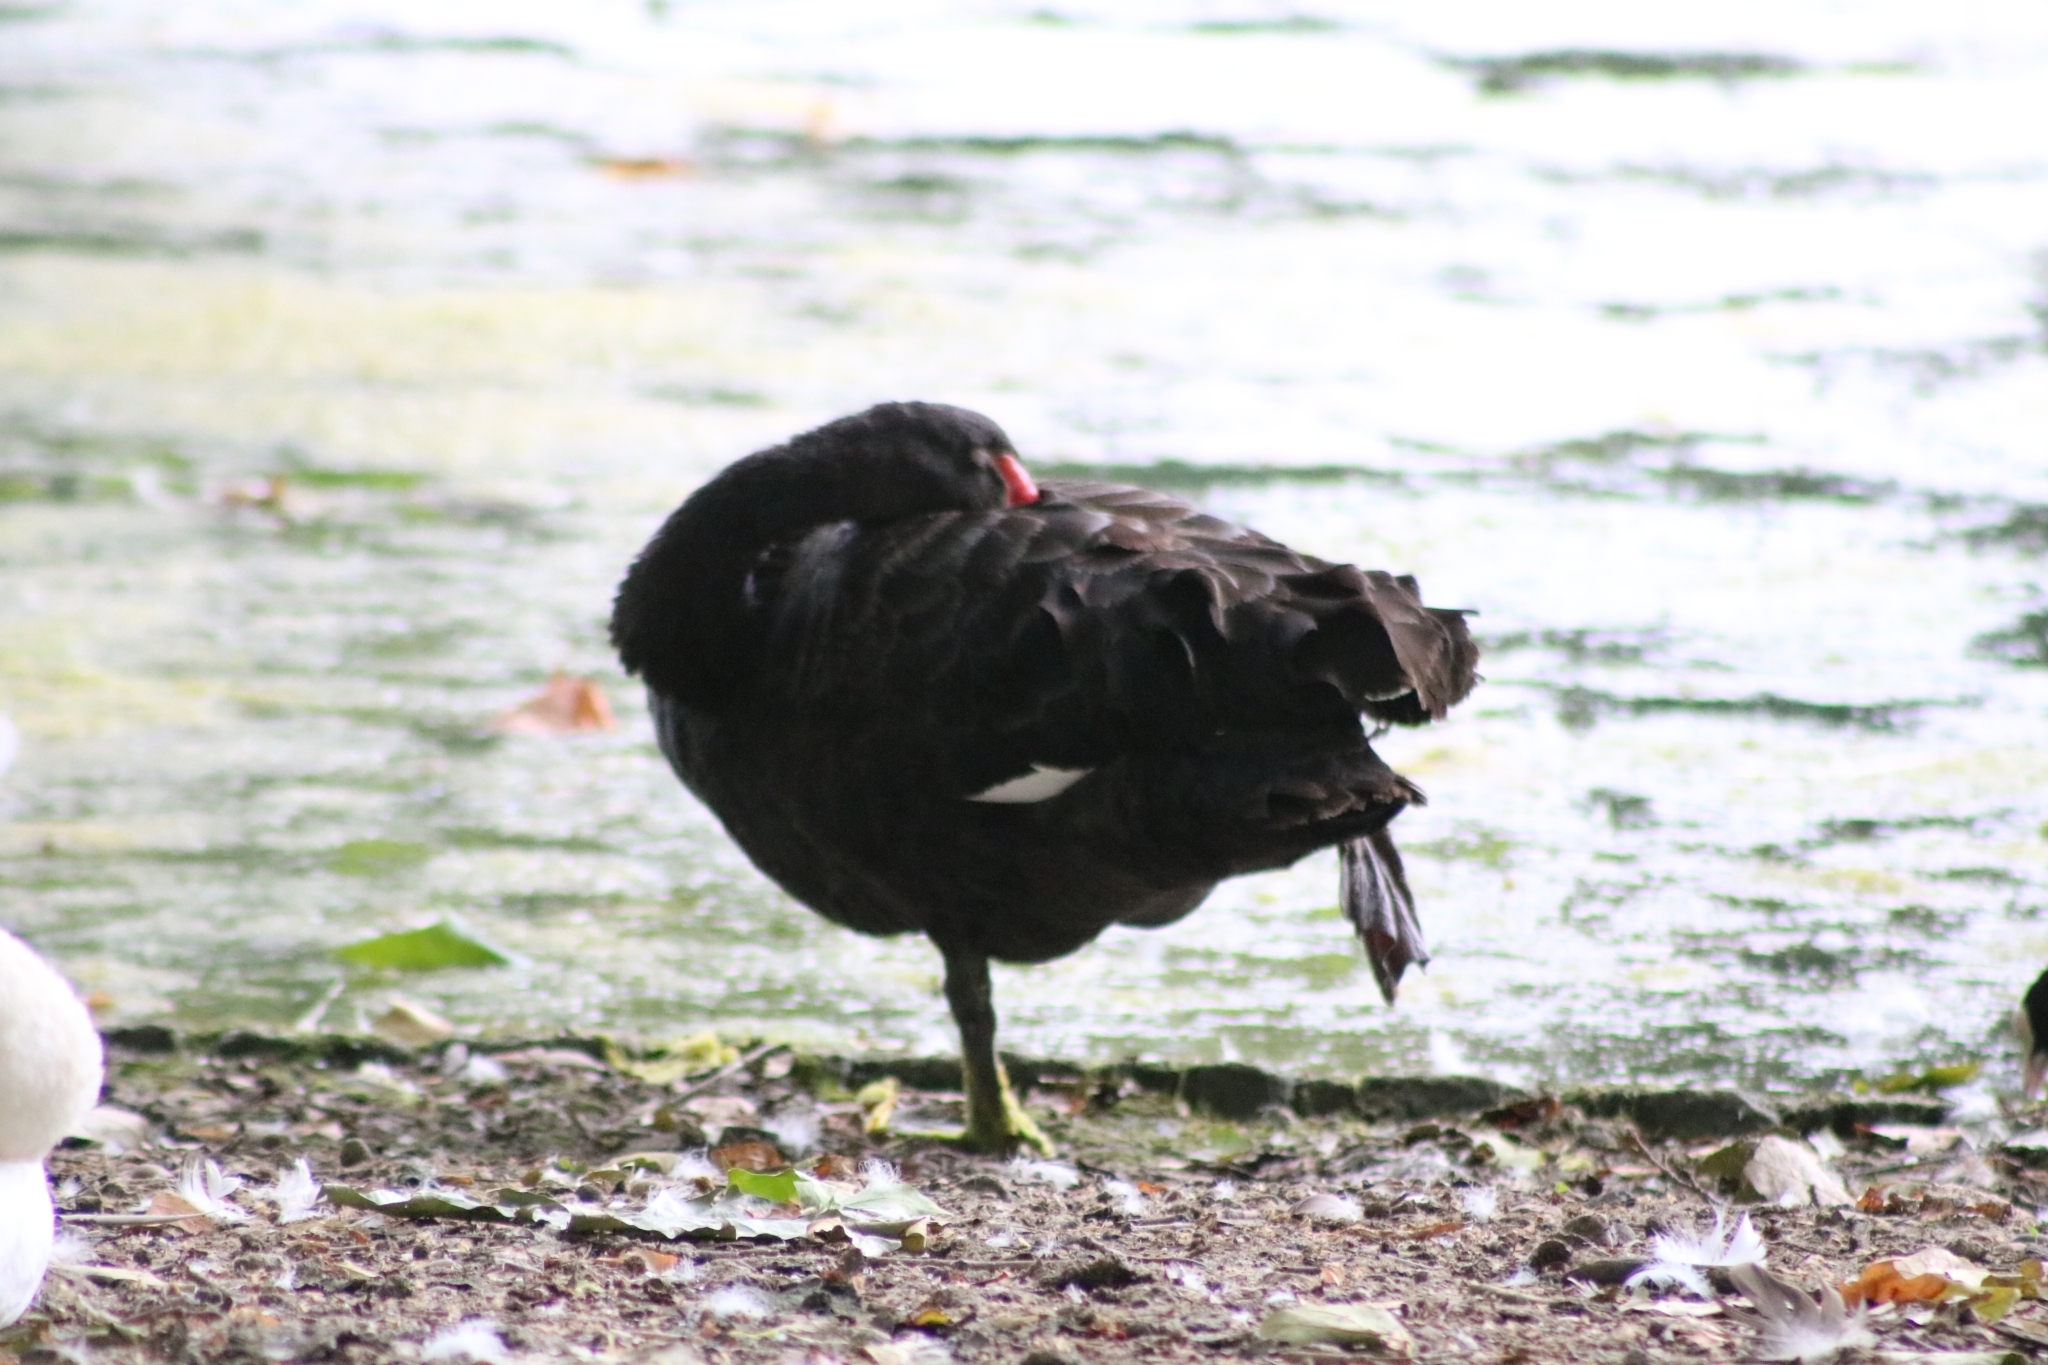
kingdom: Animalia
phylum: Chordata
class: Aves
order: Anseriformes
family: Anatidae
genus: Cygnus
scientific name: Cygnus atratus
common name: Black swan
